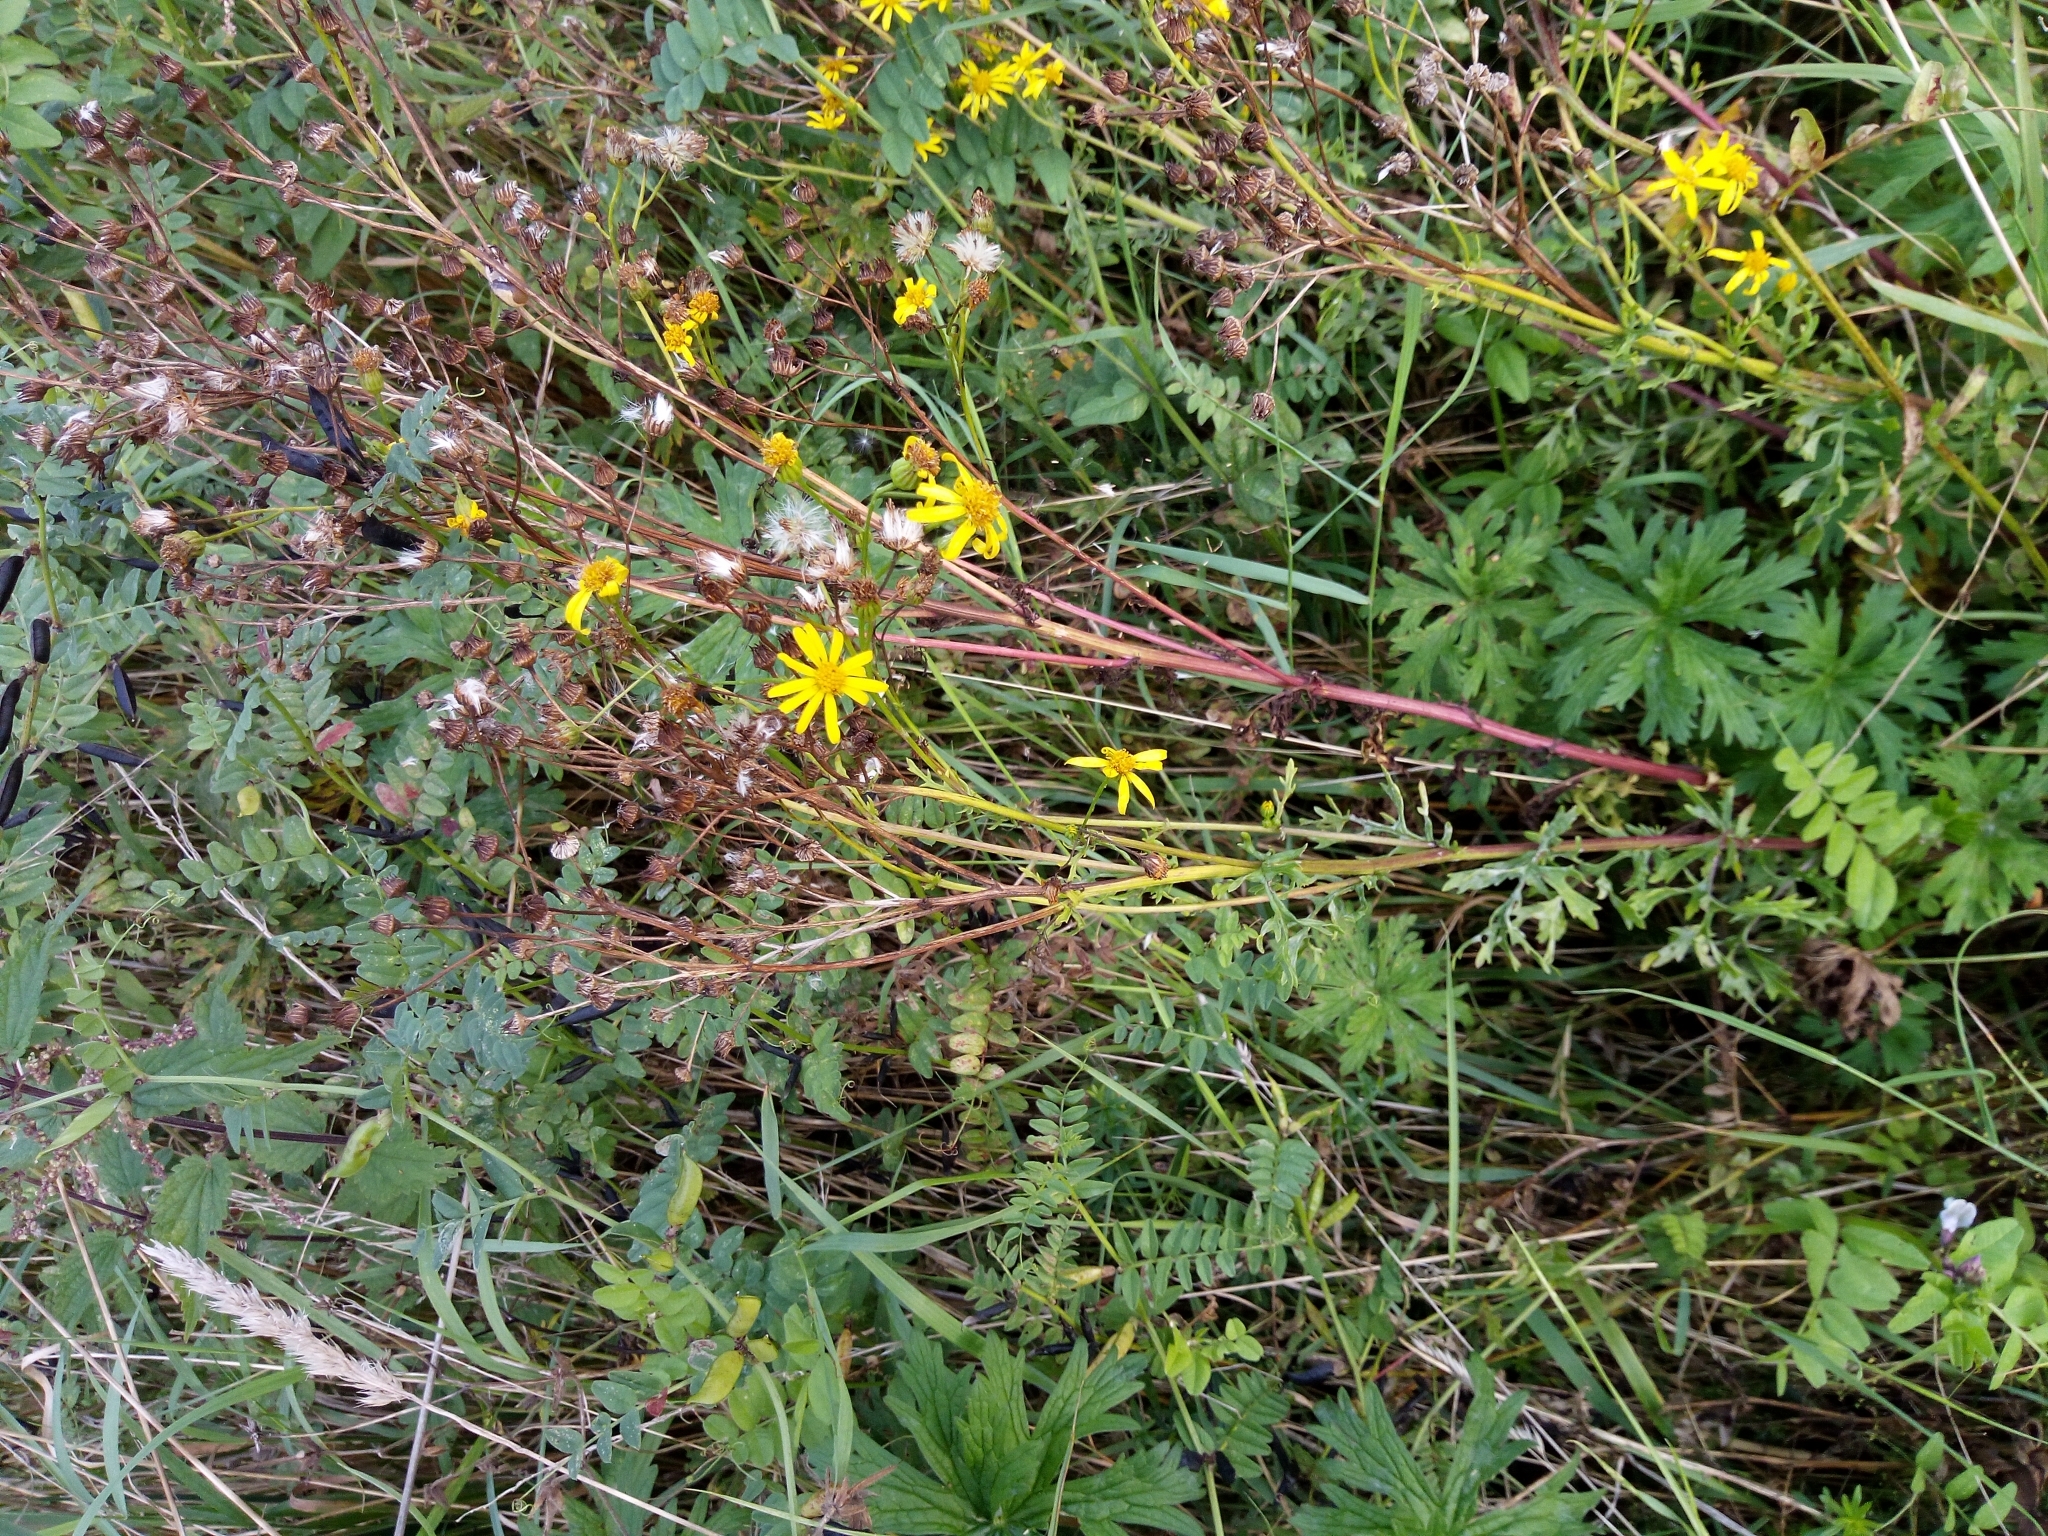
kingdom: Plantae
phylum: Tracheophyta
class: Magnoliopsida
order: Asterales
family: Asteraceae
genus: Jacobaea
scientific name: Jacobaea vulgaris
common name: Stinking willie
